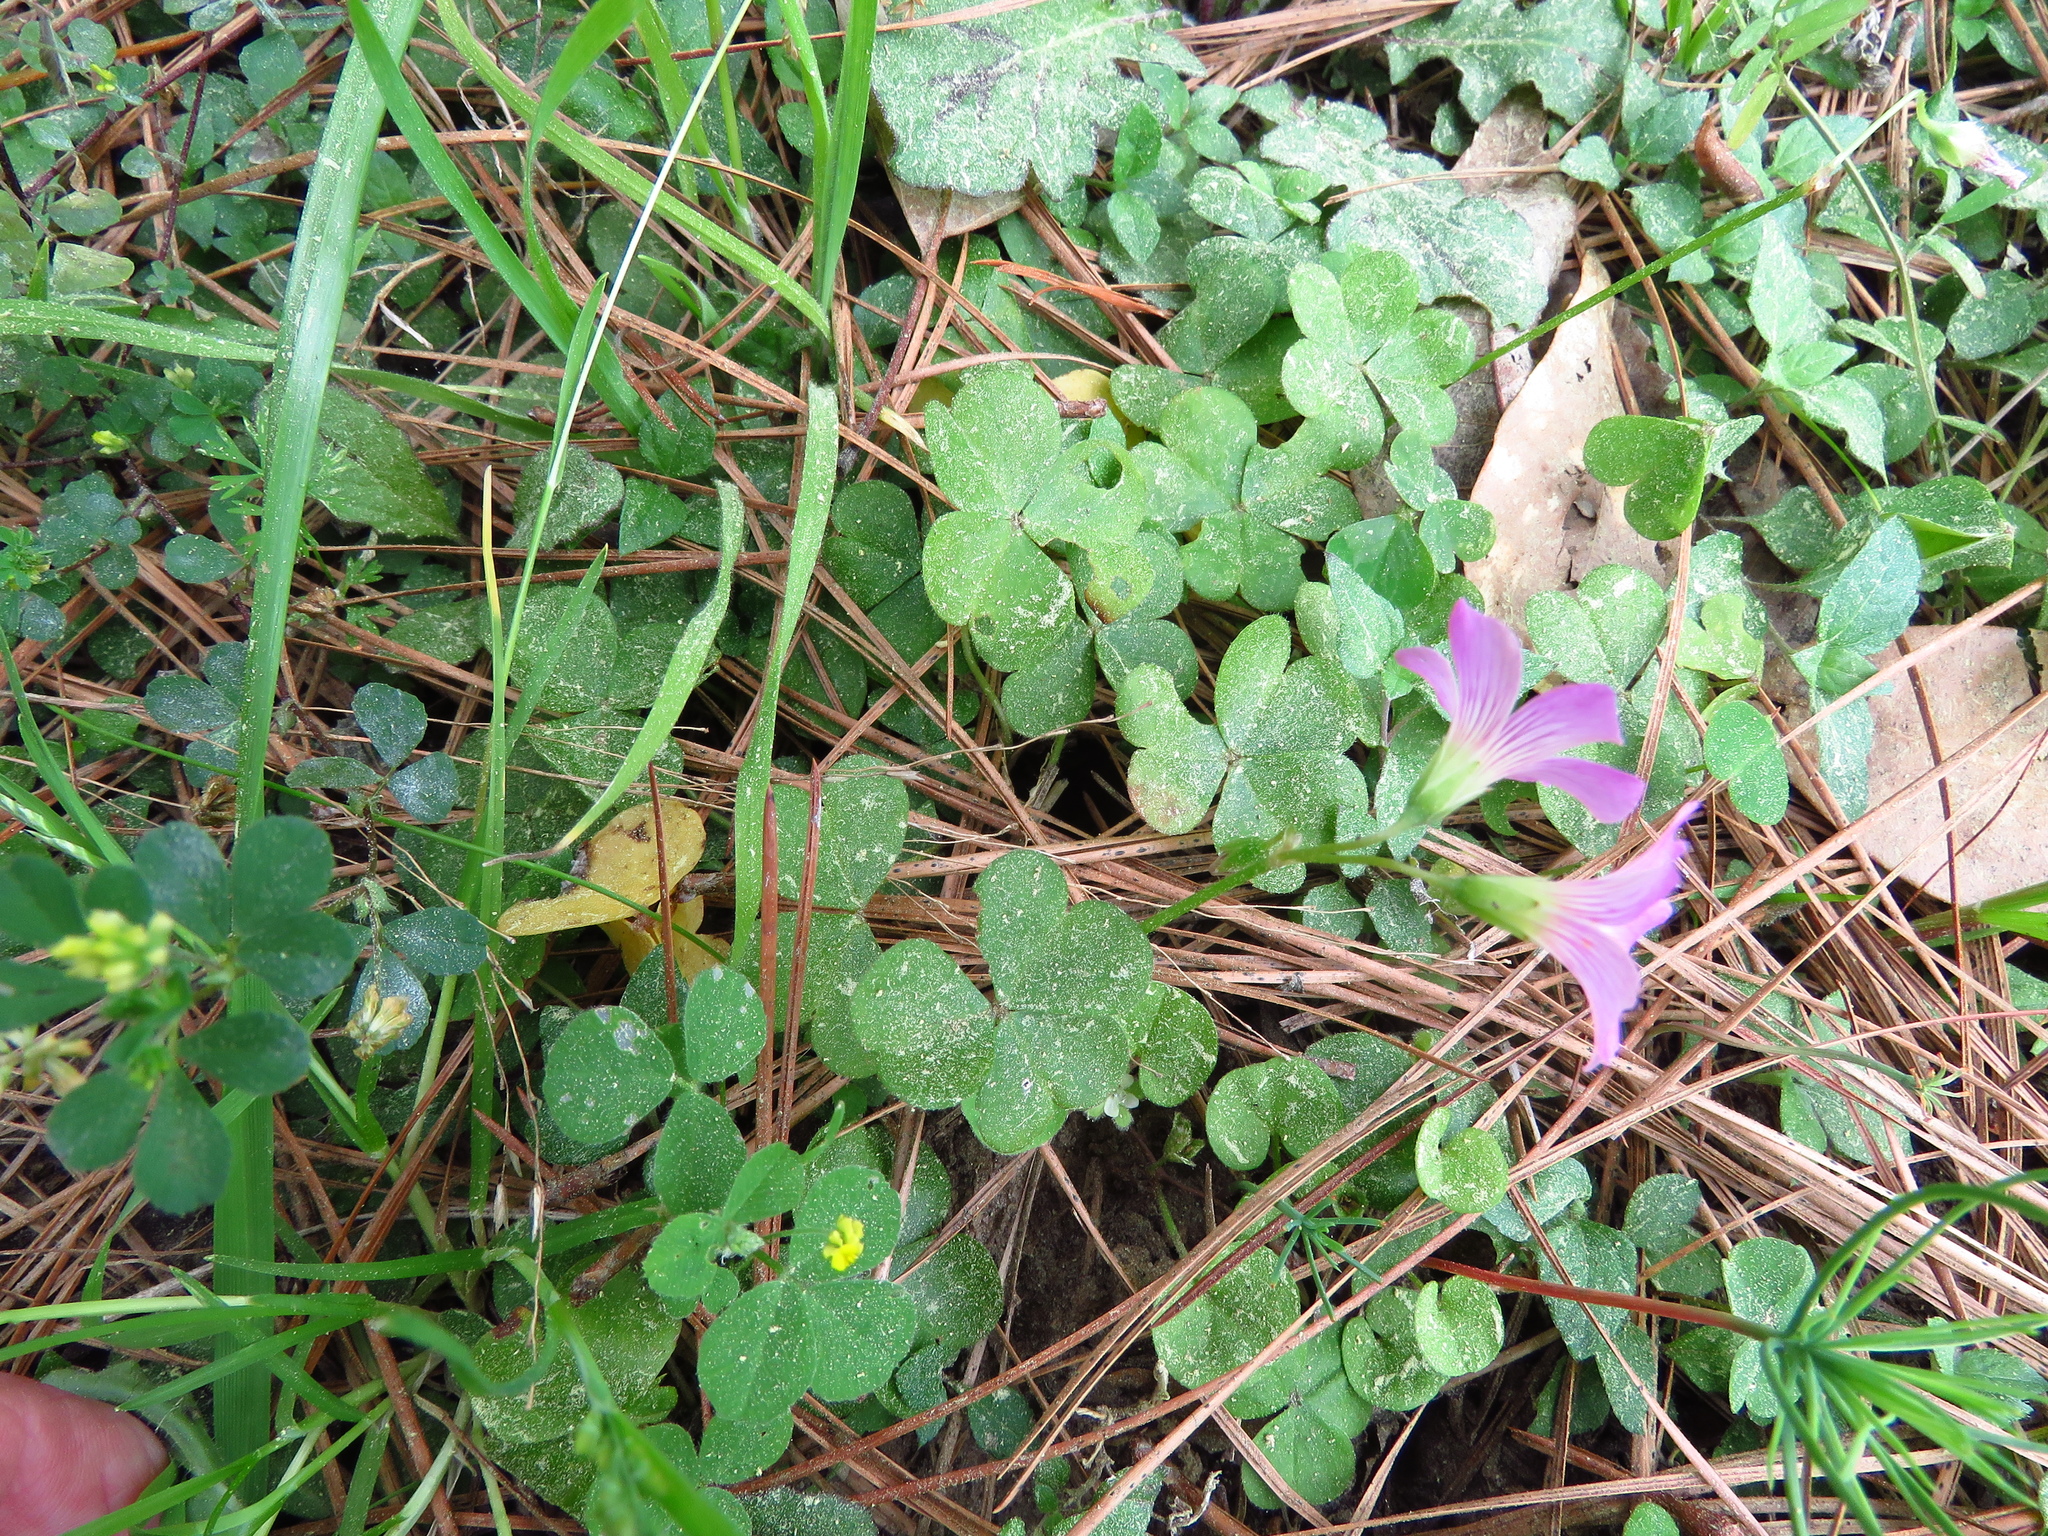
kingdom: Plantae
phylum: Tracheophyta
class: Magnoliopsida
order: Oxalidales
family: Oxalidaceae
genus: Oxalis
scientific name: Oxalis debilis
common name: Large-flowered pink-sorrel
